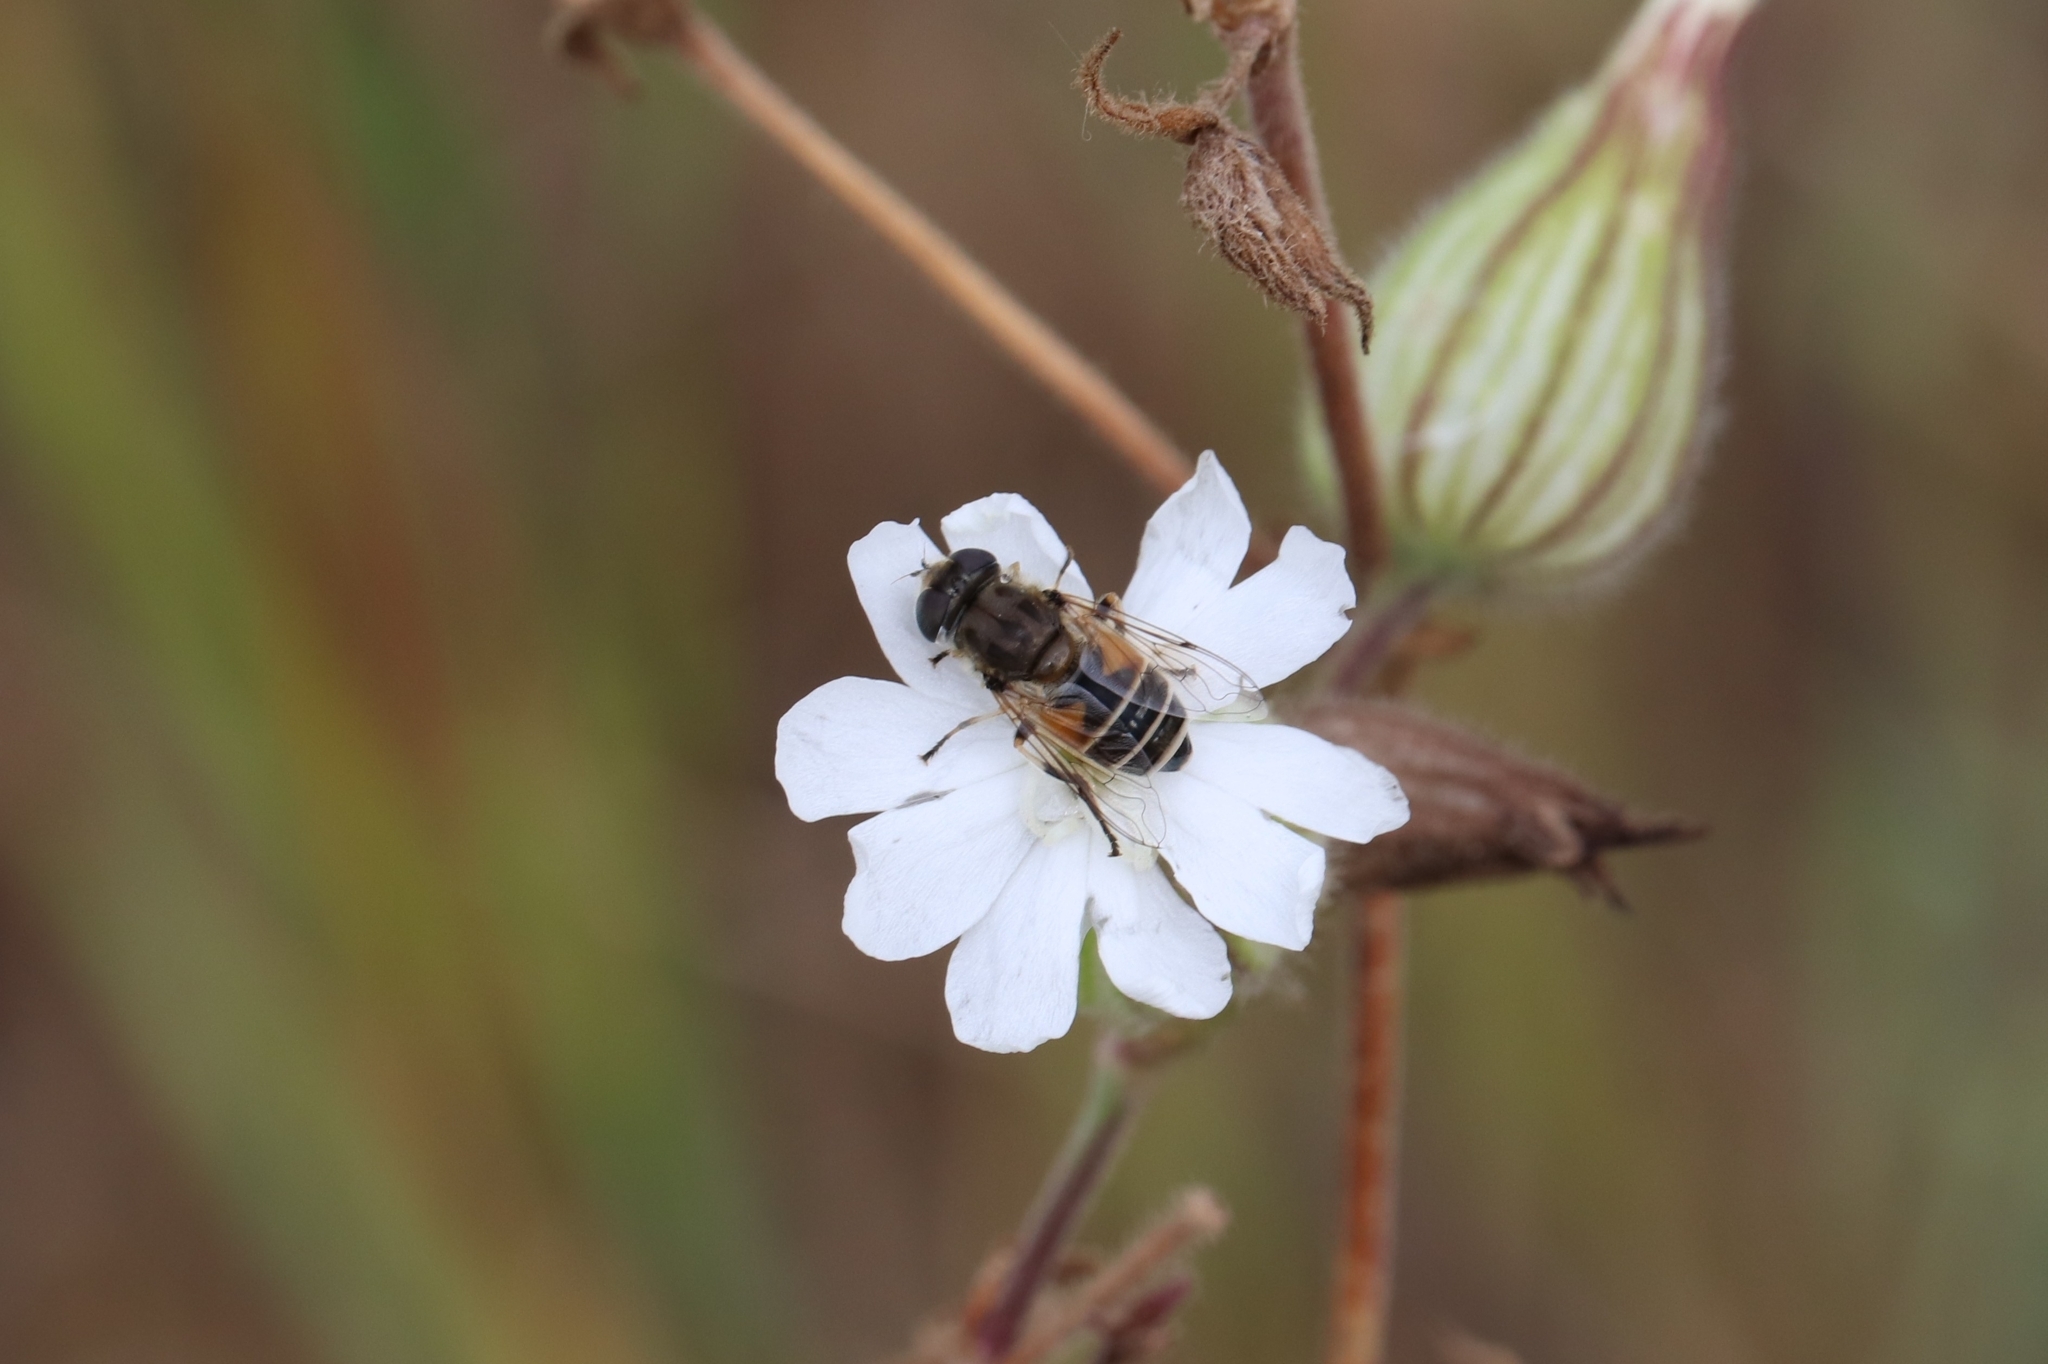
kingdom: Animalia
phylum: Arthropoda
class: Insecta
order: Diptera
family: Syrphidae
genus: Eristalis
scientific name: Eristalis arbustorum
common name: Hover fly
